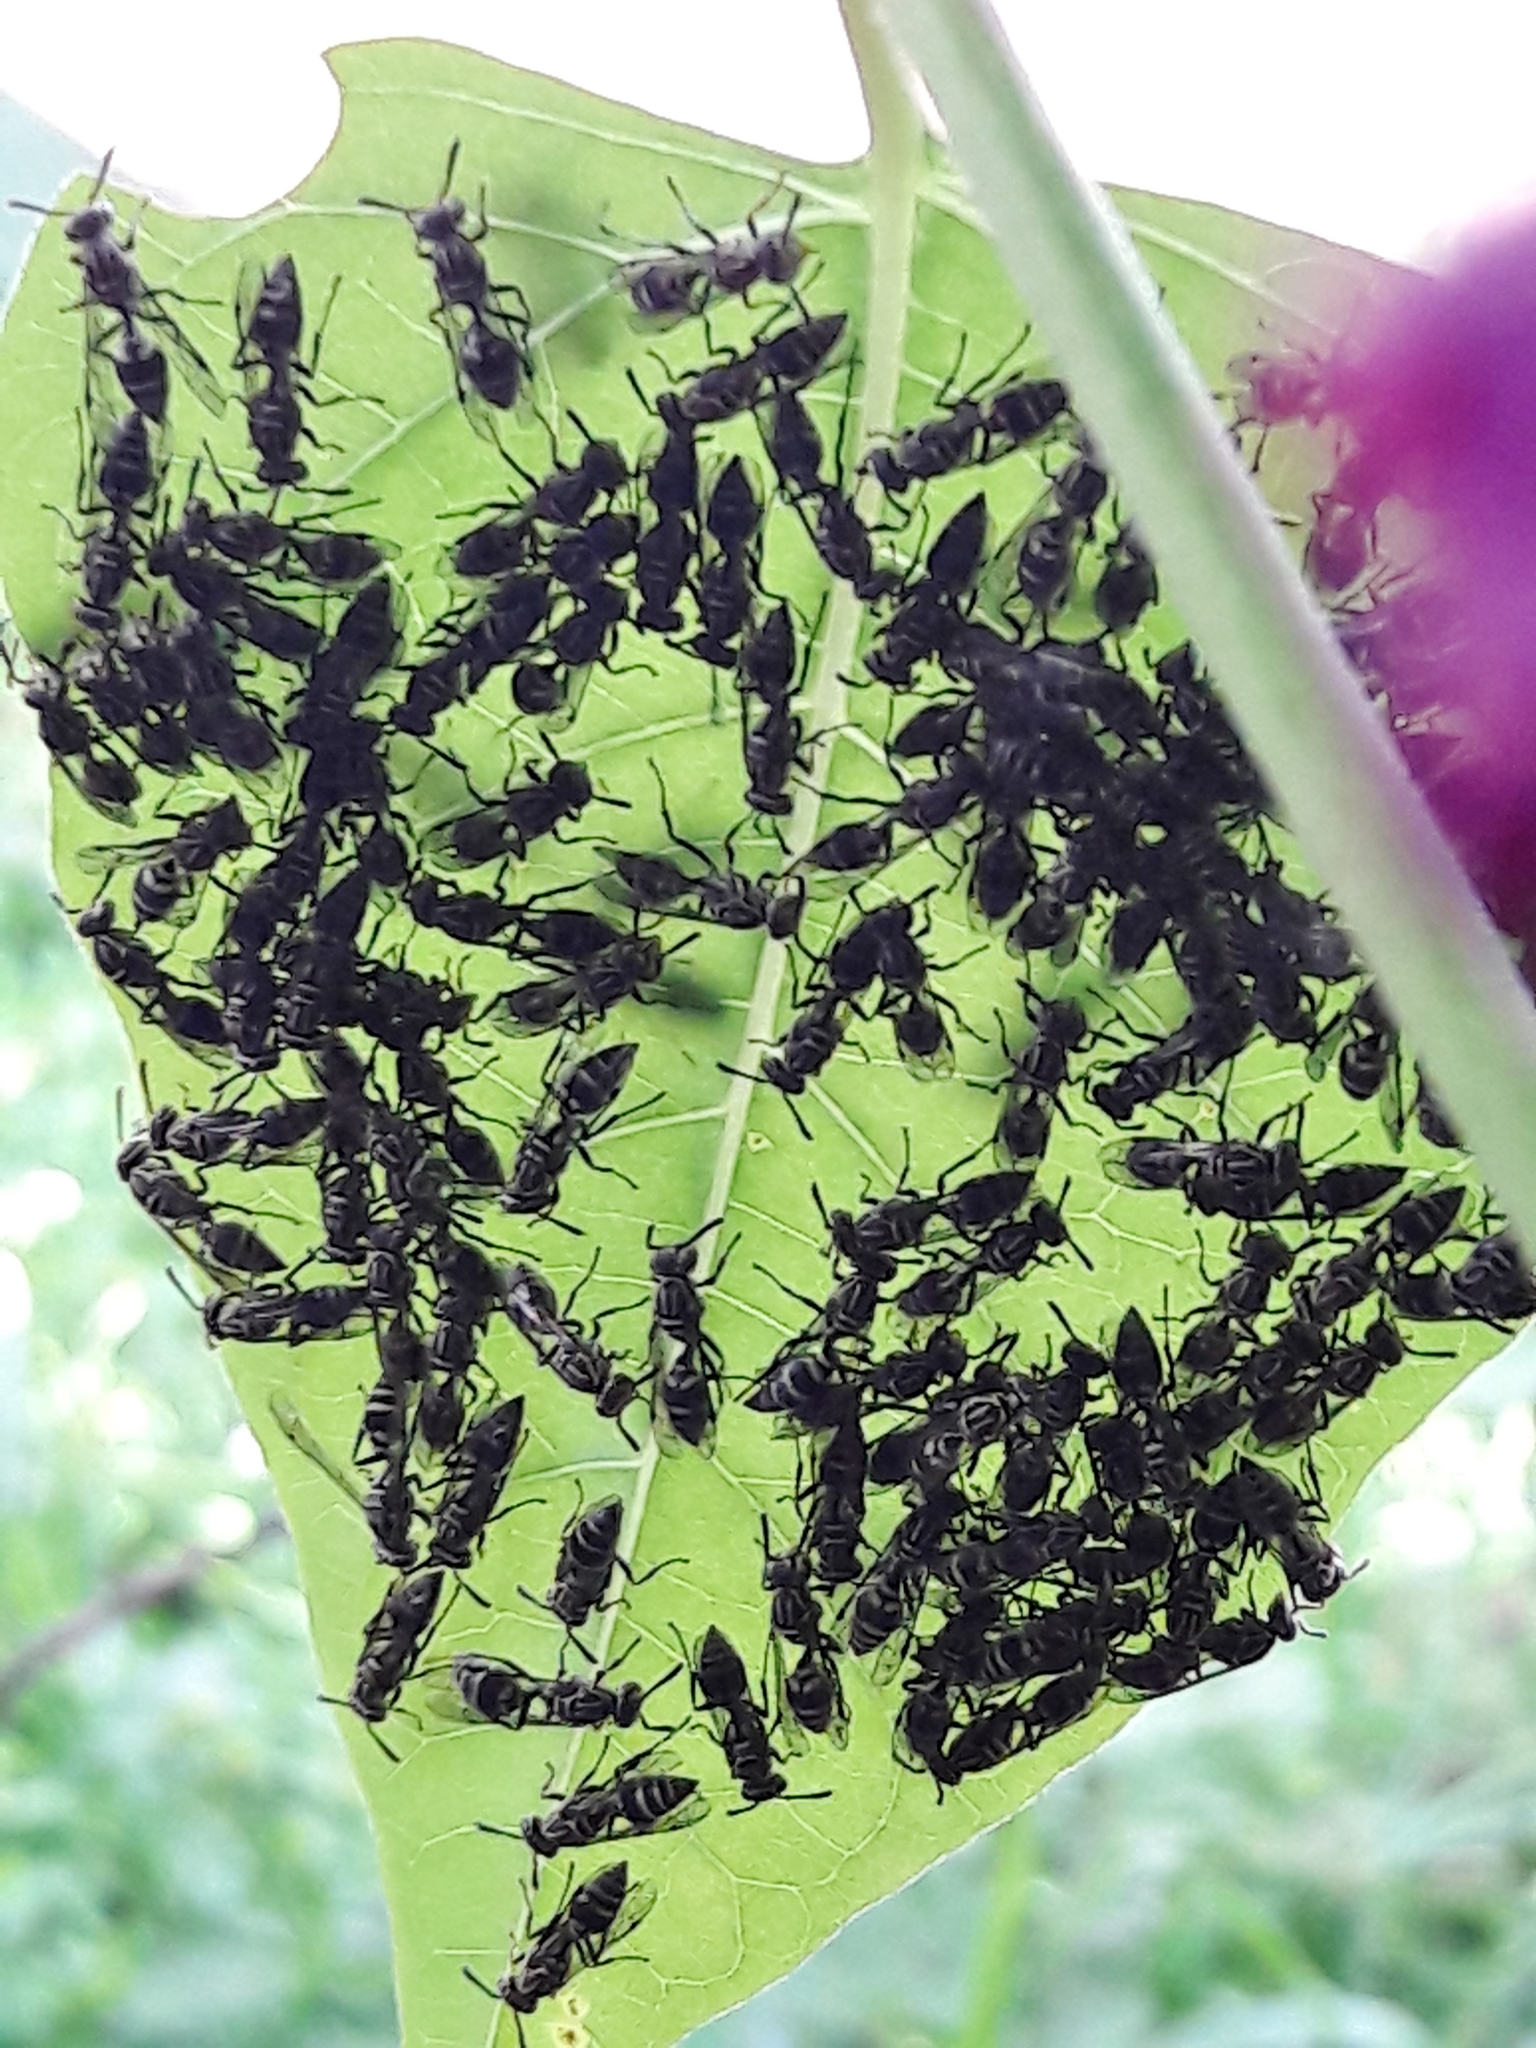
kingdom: Animalia
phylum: Arthropoda
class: Insecta
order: Hymenoptera
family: Vespidae
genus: Protopolybia
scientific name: Protopolybia exigua
